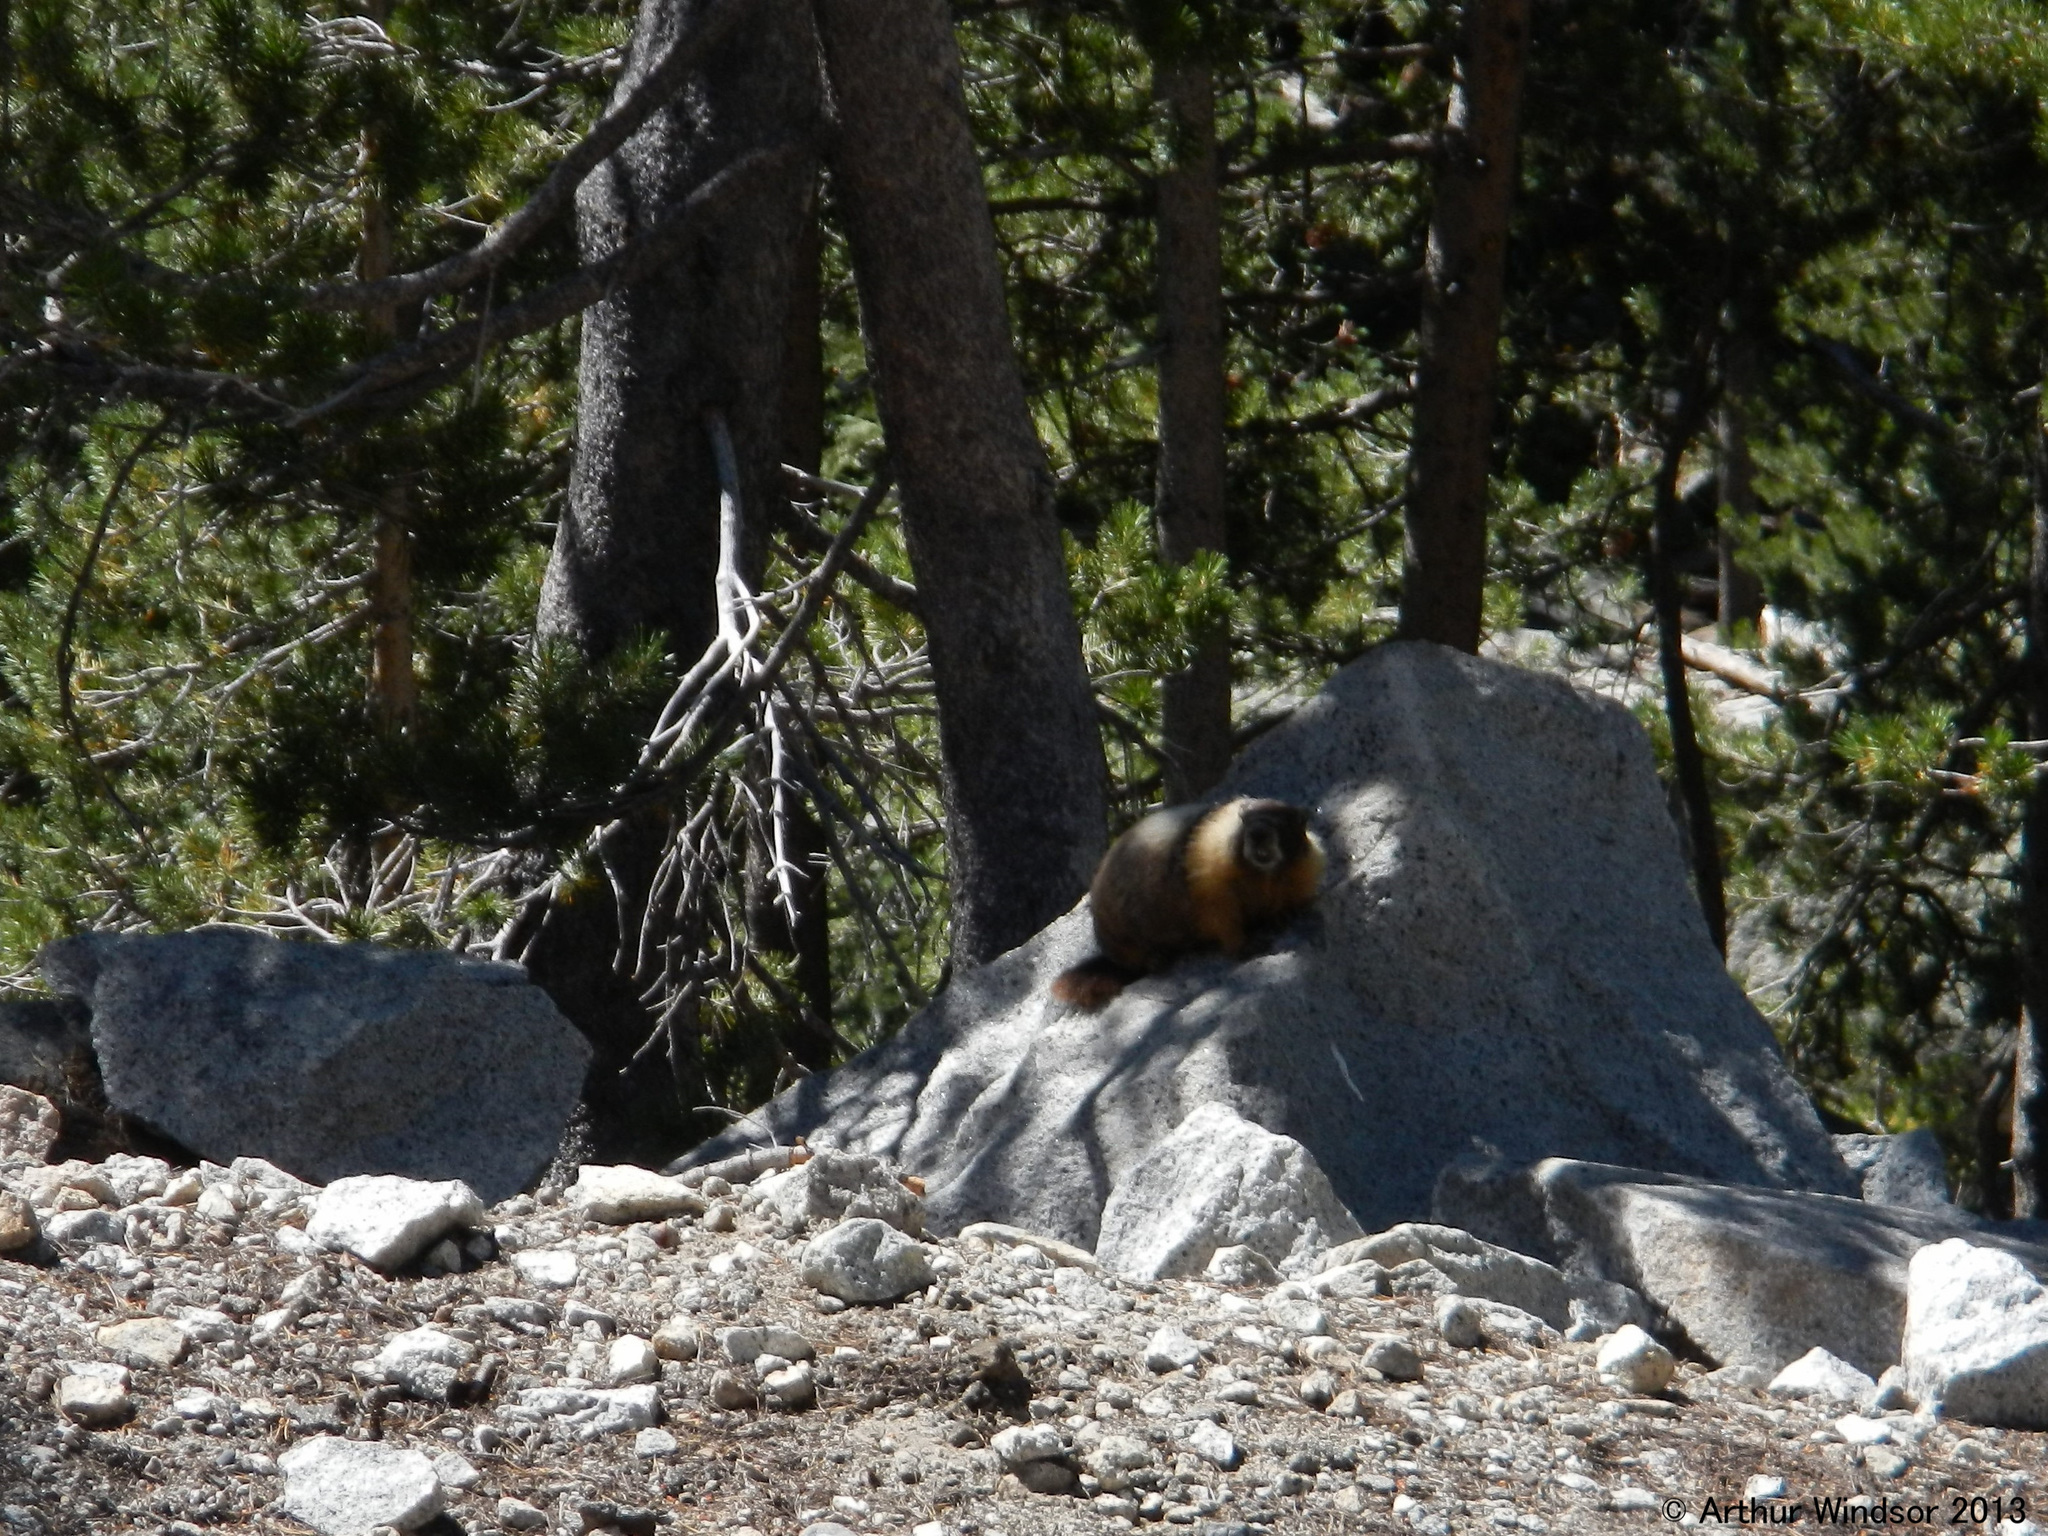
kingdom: Animalia
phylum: Chordata
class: Mammalia
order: Rodentia
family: Sciuridae
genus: Marmota
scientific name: Marmota flaviventris
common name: Yellow-bellied marmot
